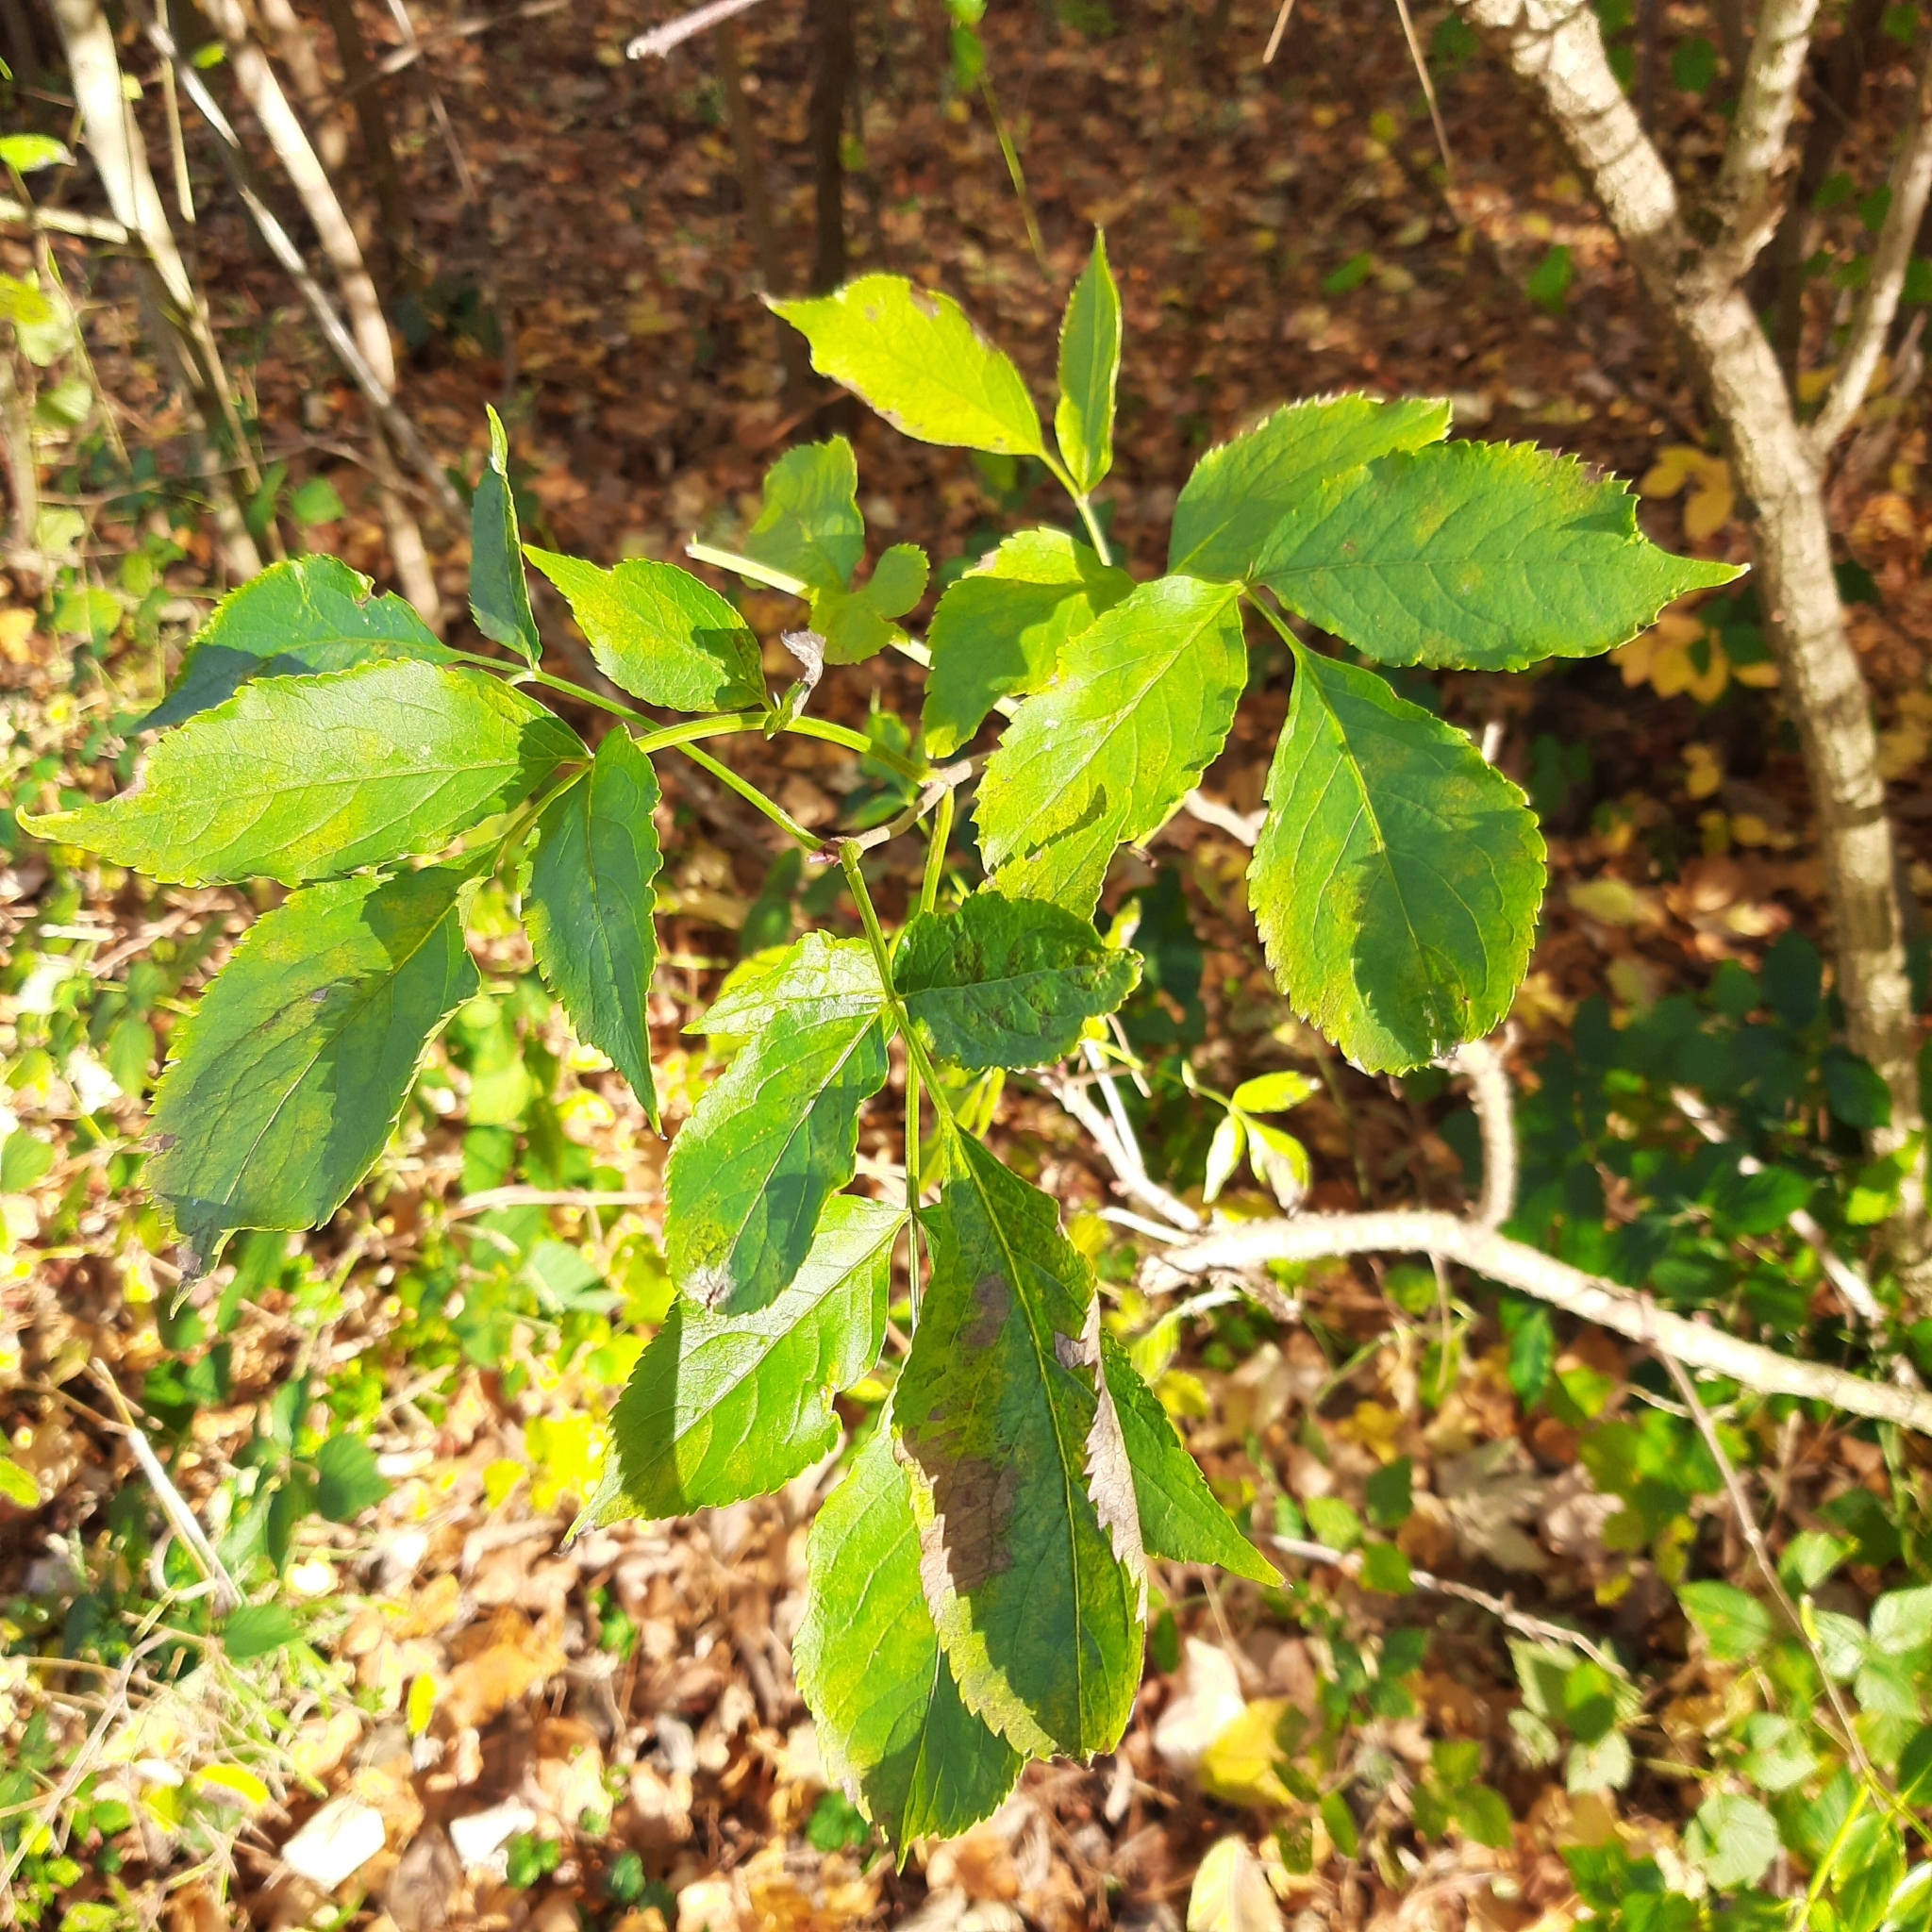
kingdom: Plantae
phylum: Tracheophyta
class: Magnoliopsida
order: Dipsacales
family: Viburnaceae
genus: Sambucus
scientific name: Sambucus nigra
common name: Elder
